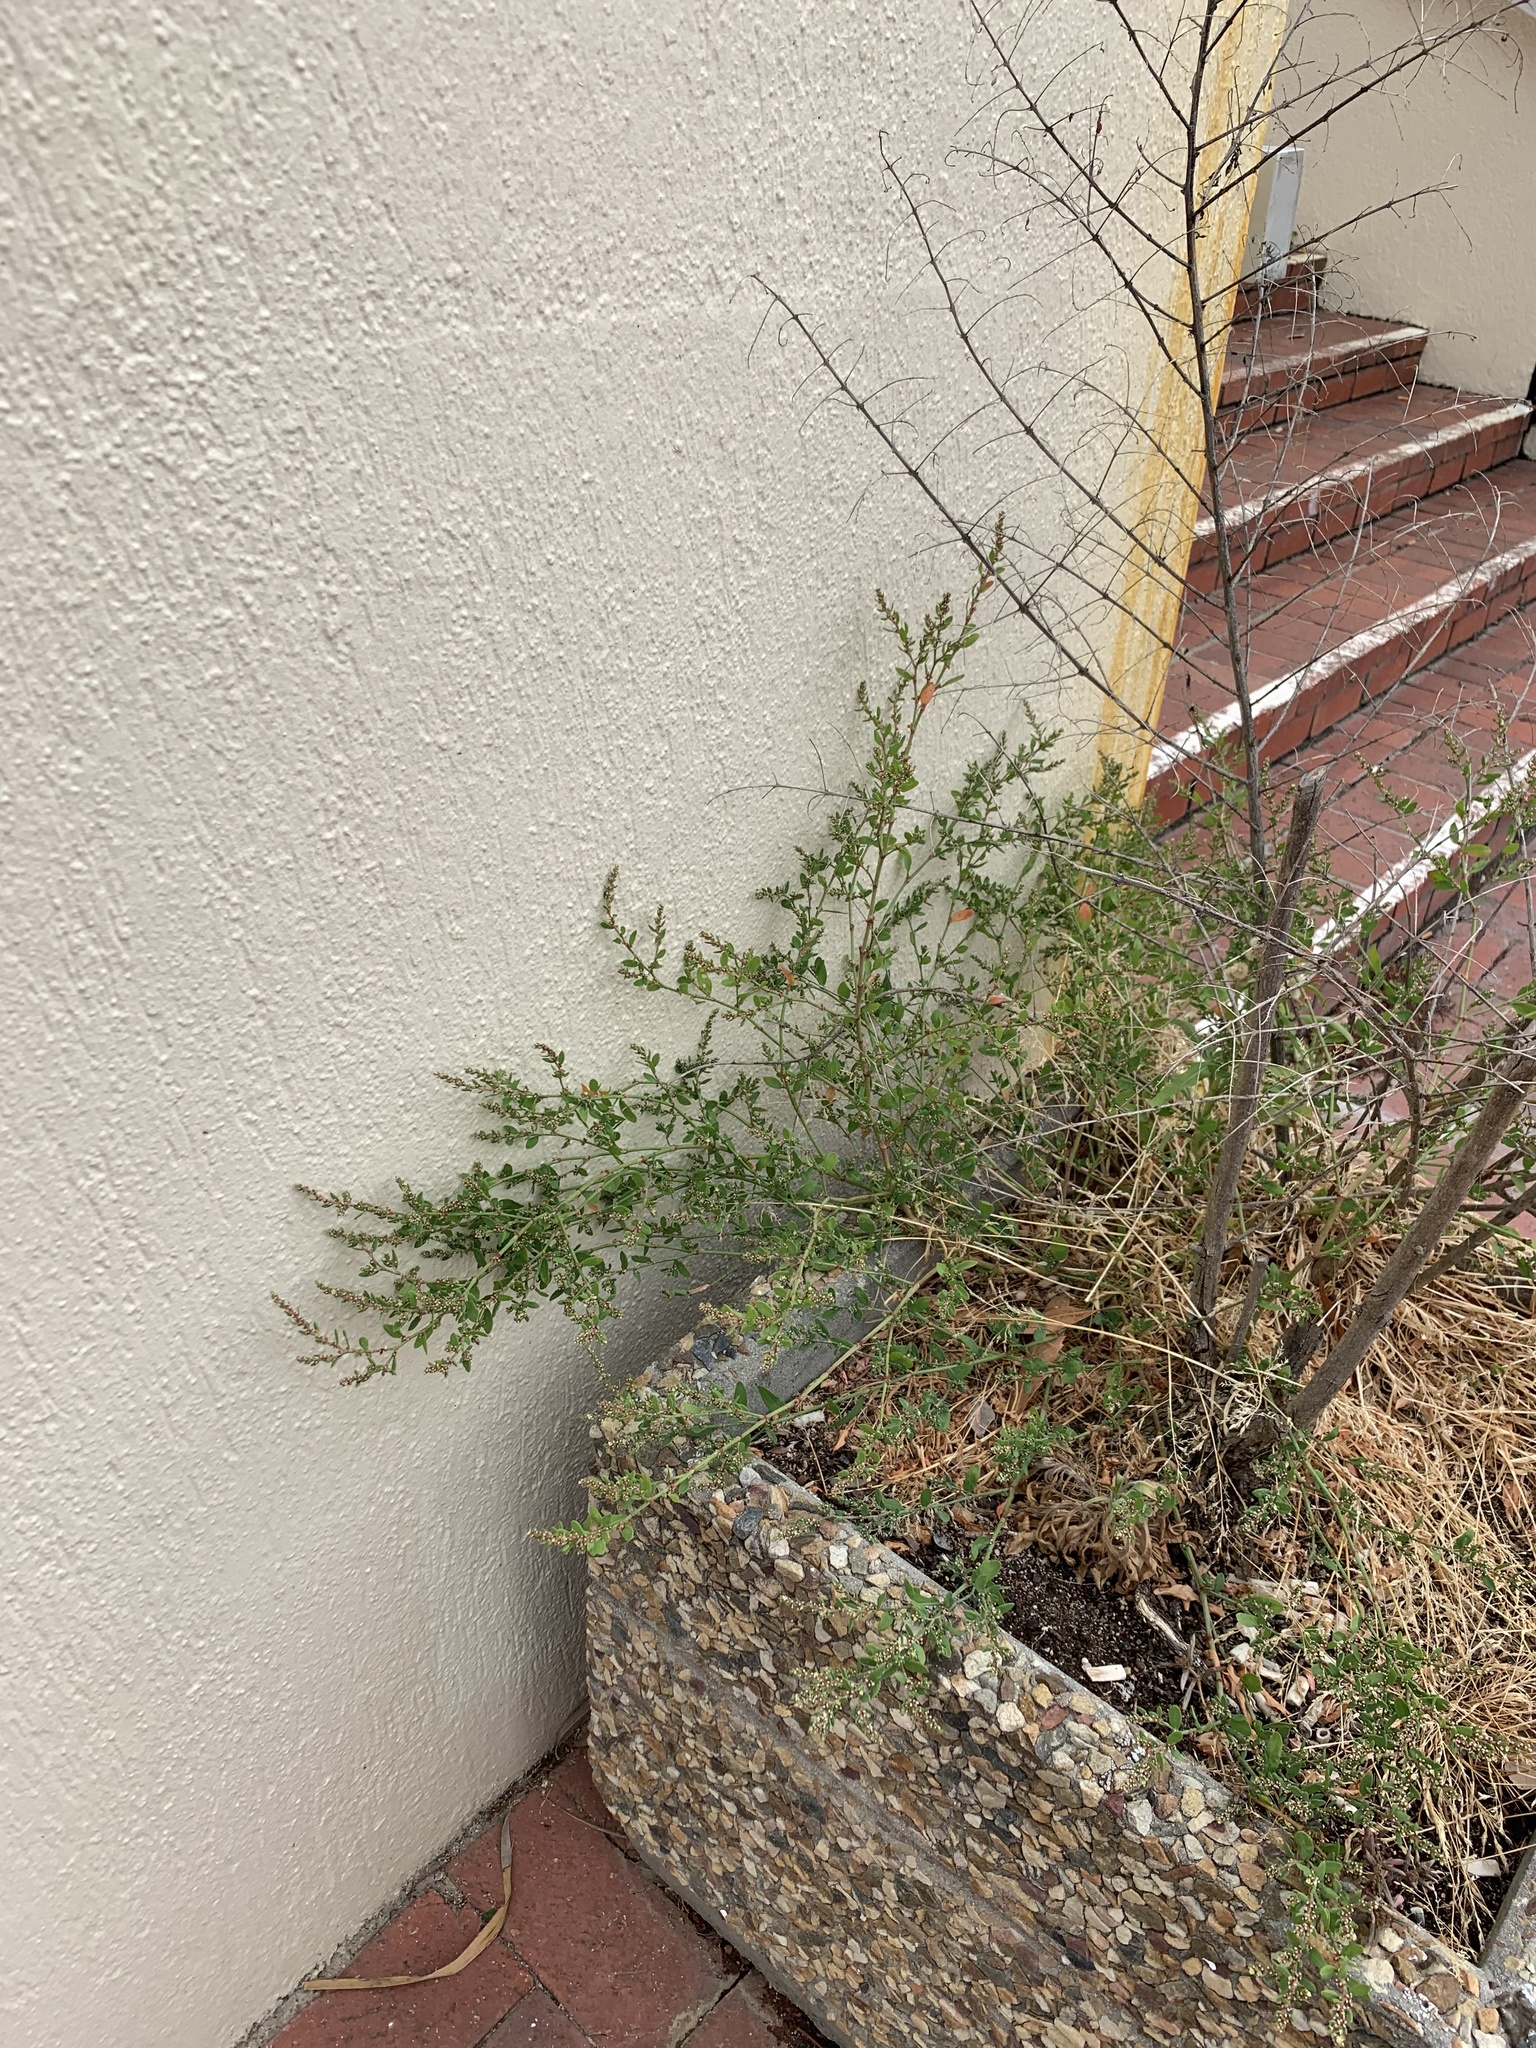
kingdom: Plantae
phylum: Tracheophyta
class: Magnoliopsida
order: Caryophyllales
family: Polygonaceae
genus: Polygonum
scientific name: Polygonum aviculare
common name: Prostrate knotweed
